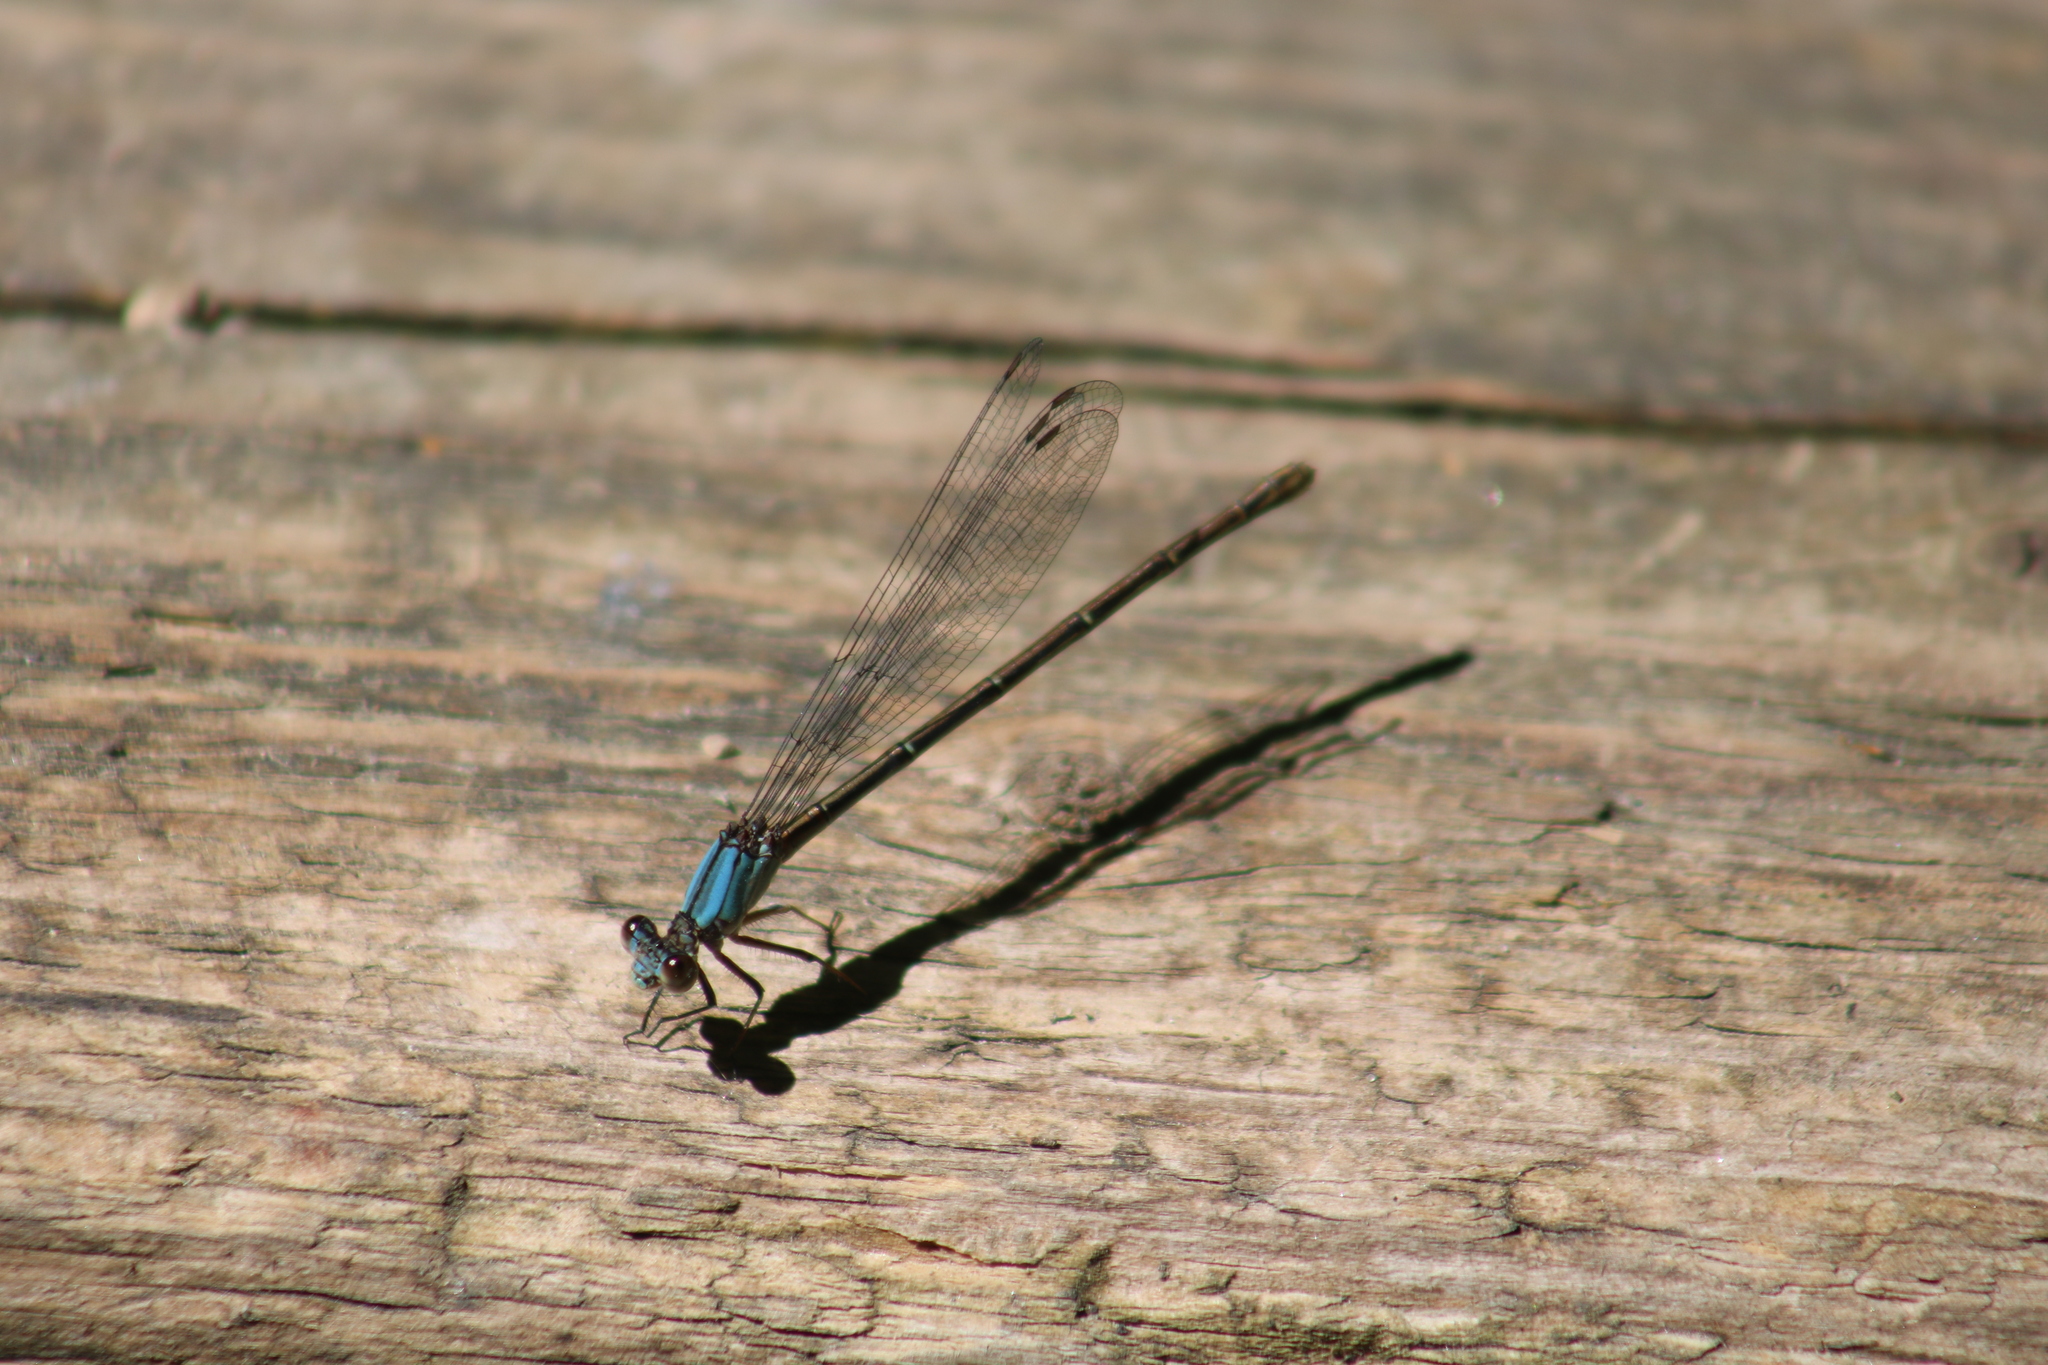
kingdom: Animalia
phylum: Arthropoda
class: Insecta
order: Odonata
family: Coenagrionidae
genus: Argia
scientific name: Argia moesta
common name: Powdered dancer
